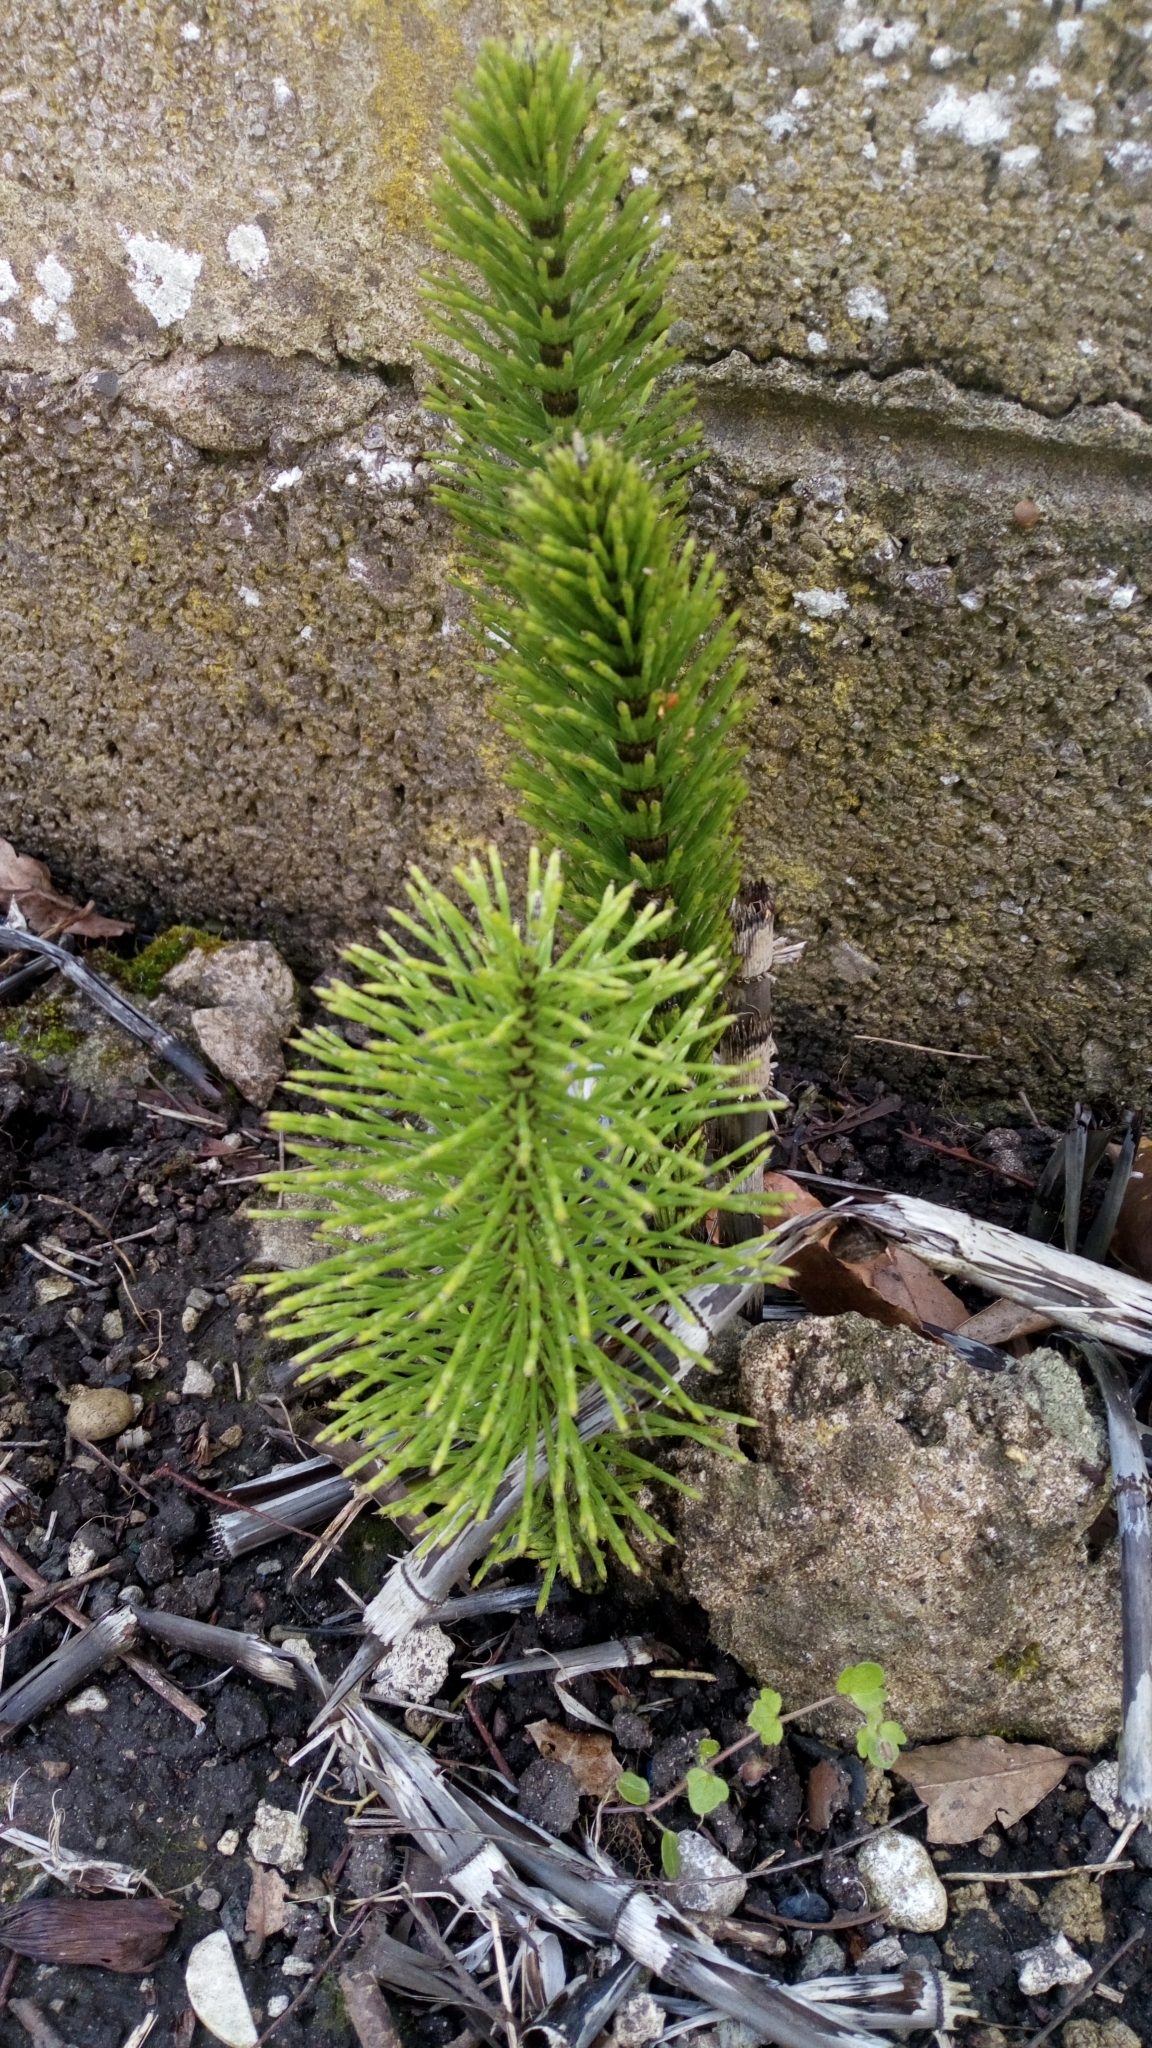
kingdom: Plantae
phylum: Tracheophyta
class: Polypodiopsida
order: Equisetales
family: Equisetaceae
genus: Equisetum
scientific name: Equisetum telmateia
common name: Great horsetail
